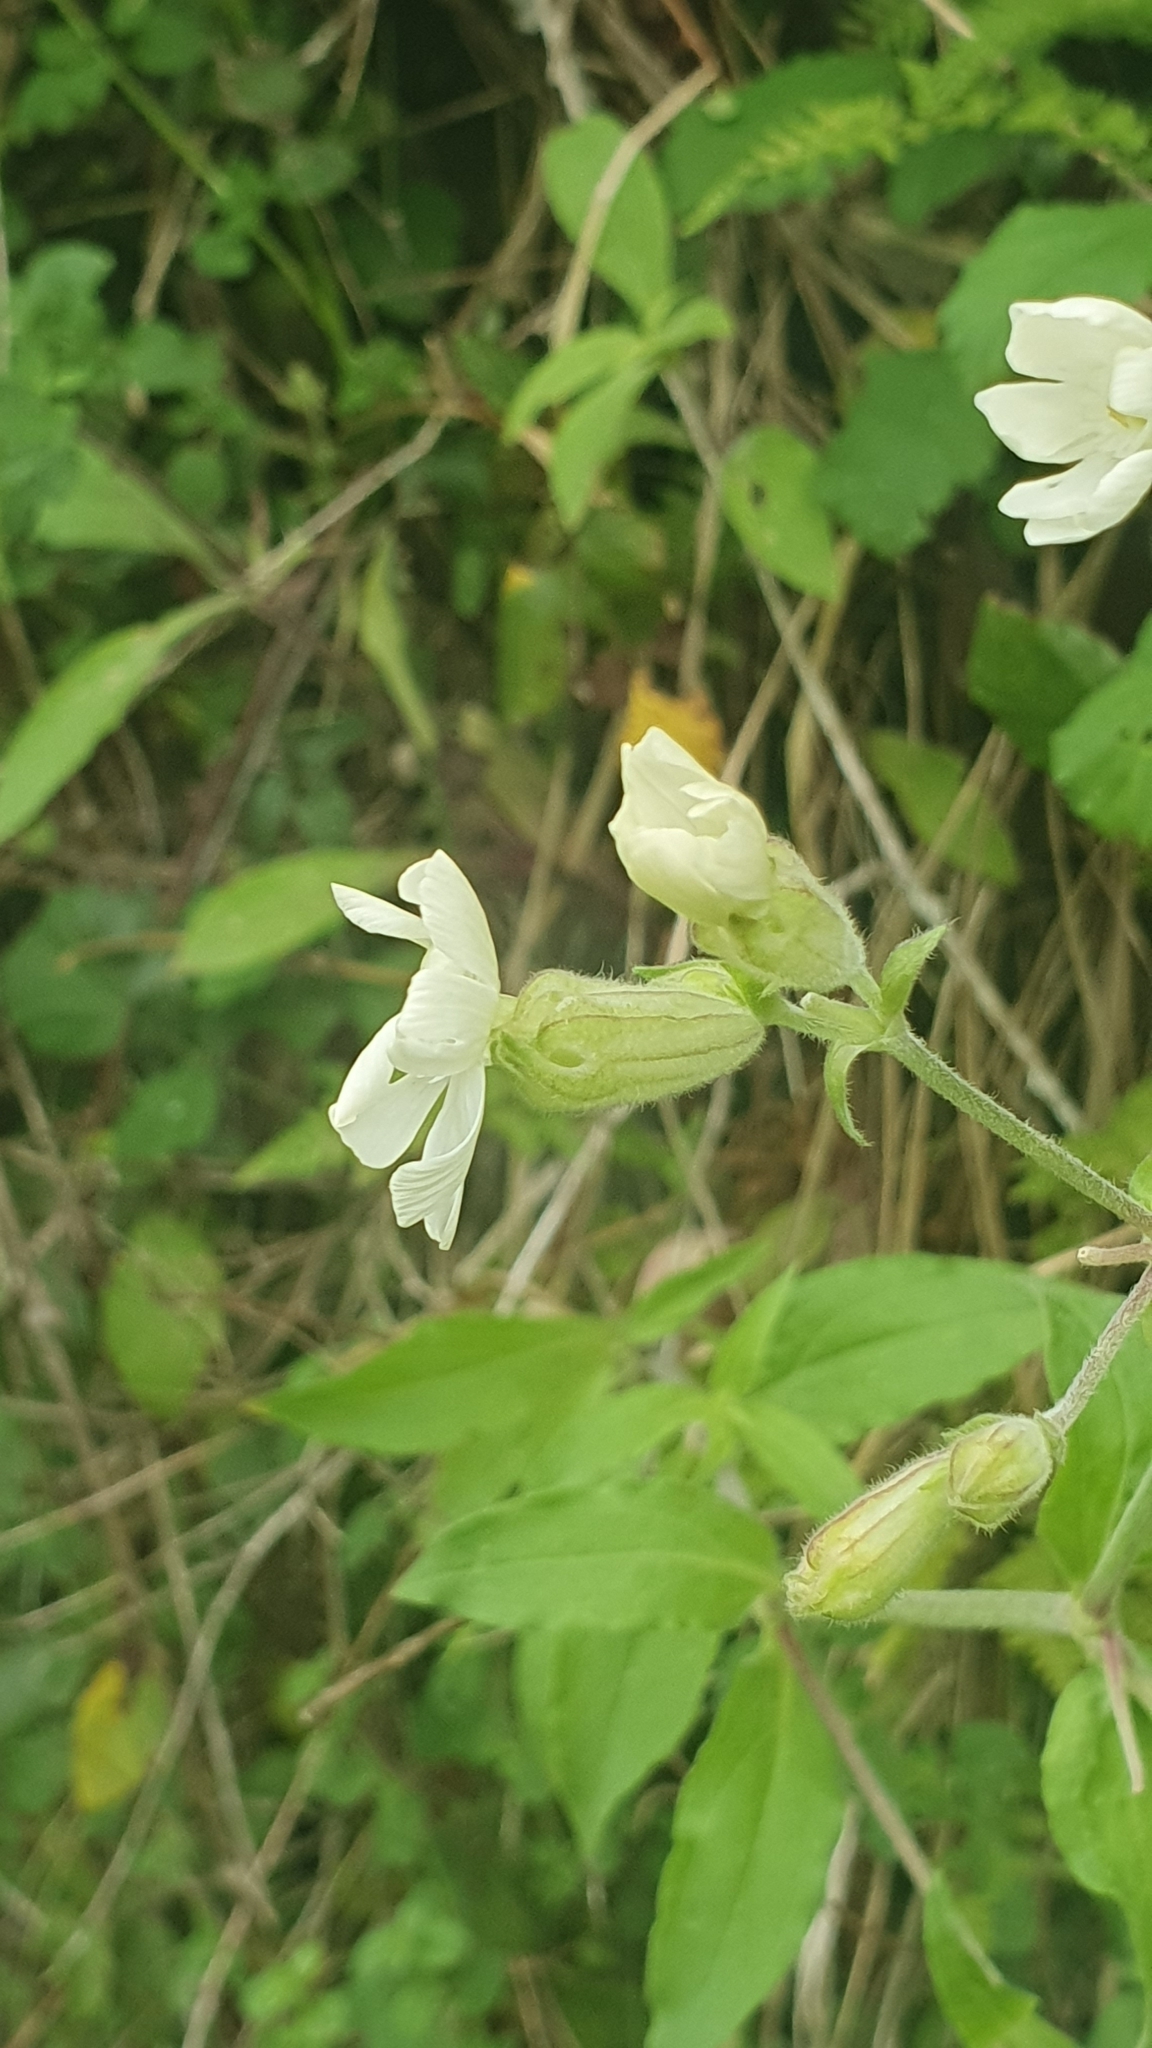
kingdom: Plantae
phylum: Tracheophyta
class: Magnoliopsida
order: Caryophyllales
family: Caryophyllaceae
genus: Silene
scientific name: Silene latifolia
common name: White campion
